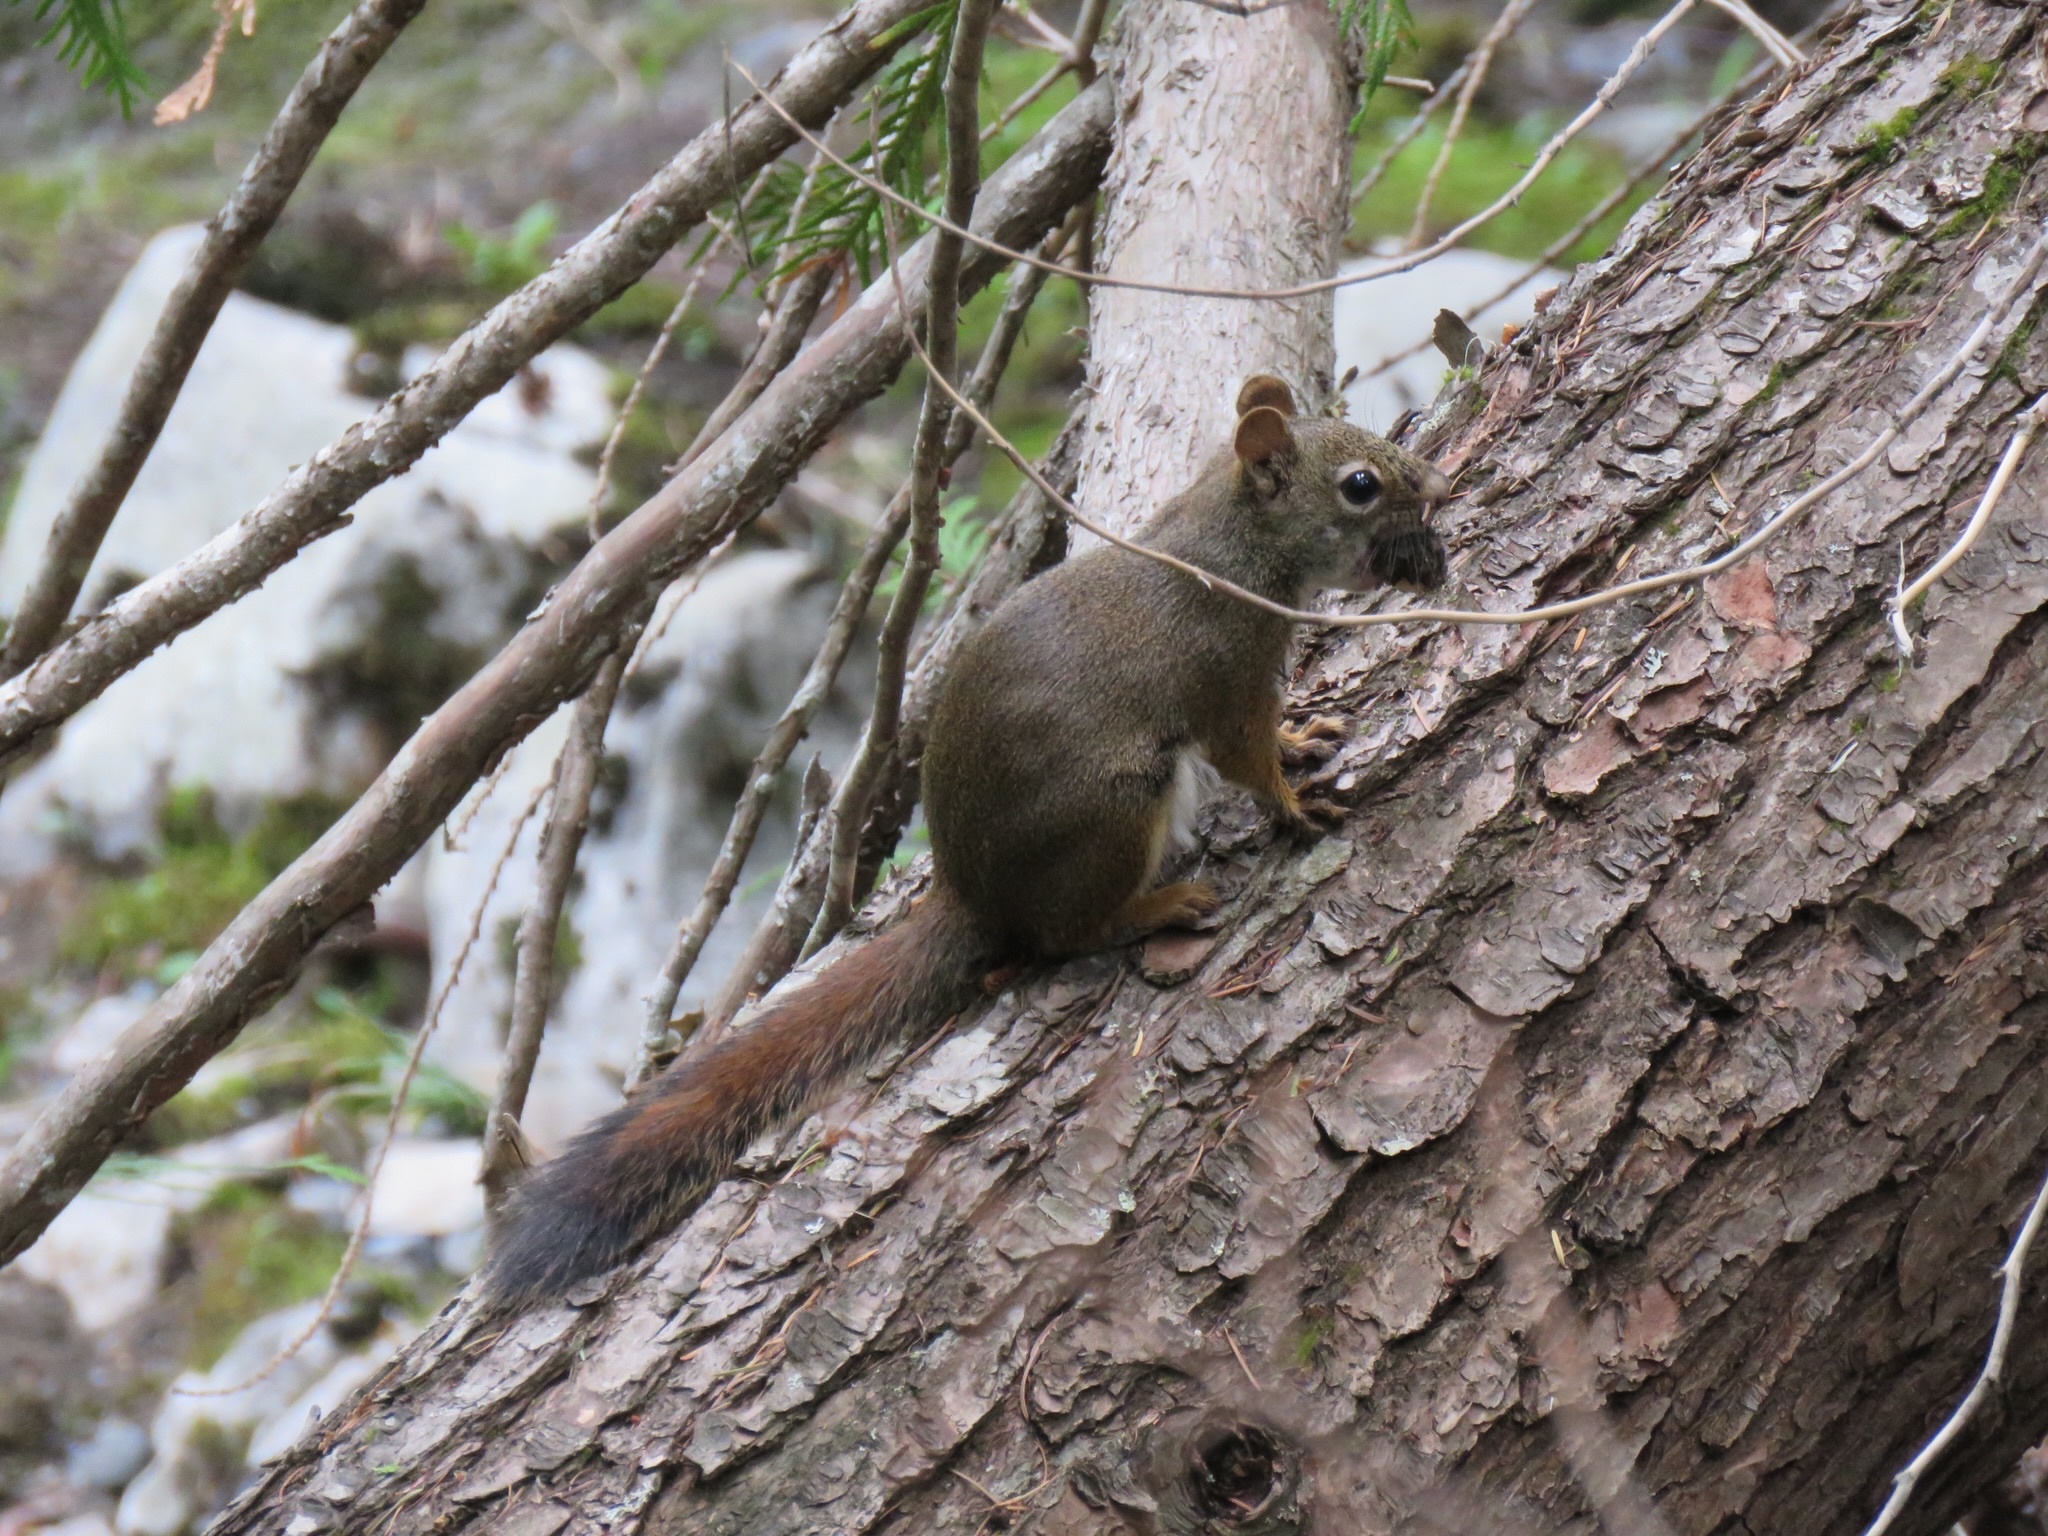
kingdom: Animalia
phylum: Chordata
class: Mammalia
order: Rodentia
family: Sciuridae
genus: Tamiasciurus
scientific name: Tamiasciurus hudsonicus
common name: Red squirrel
